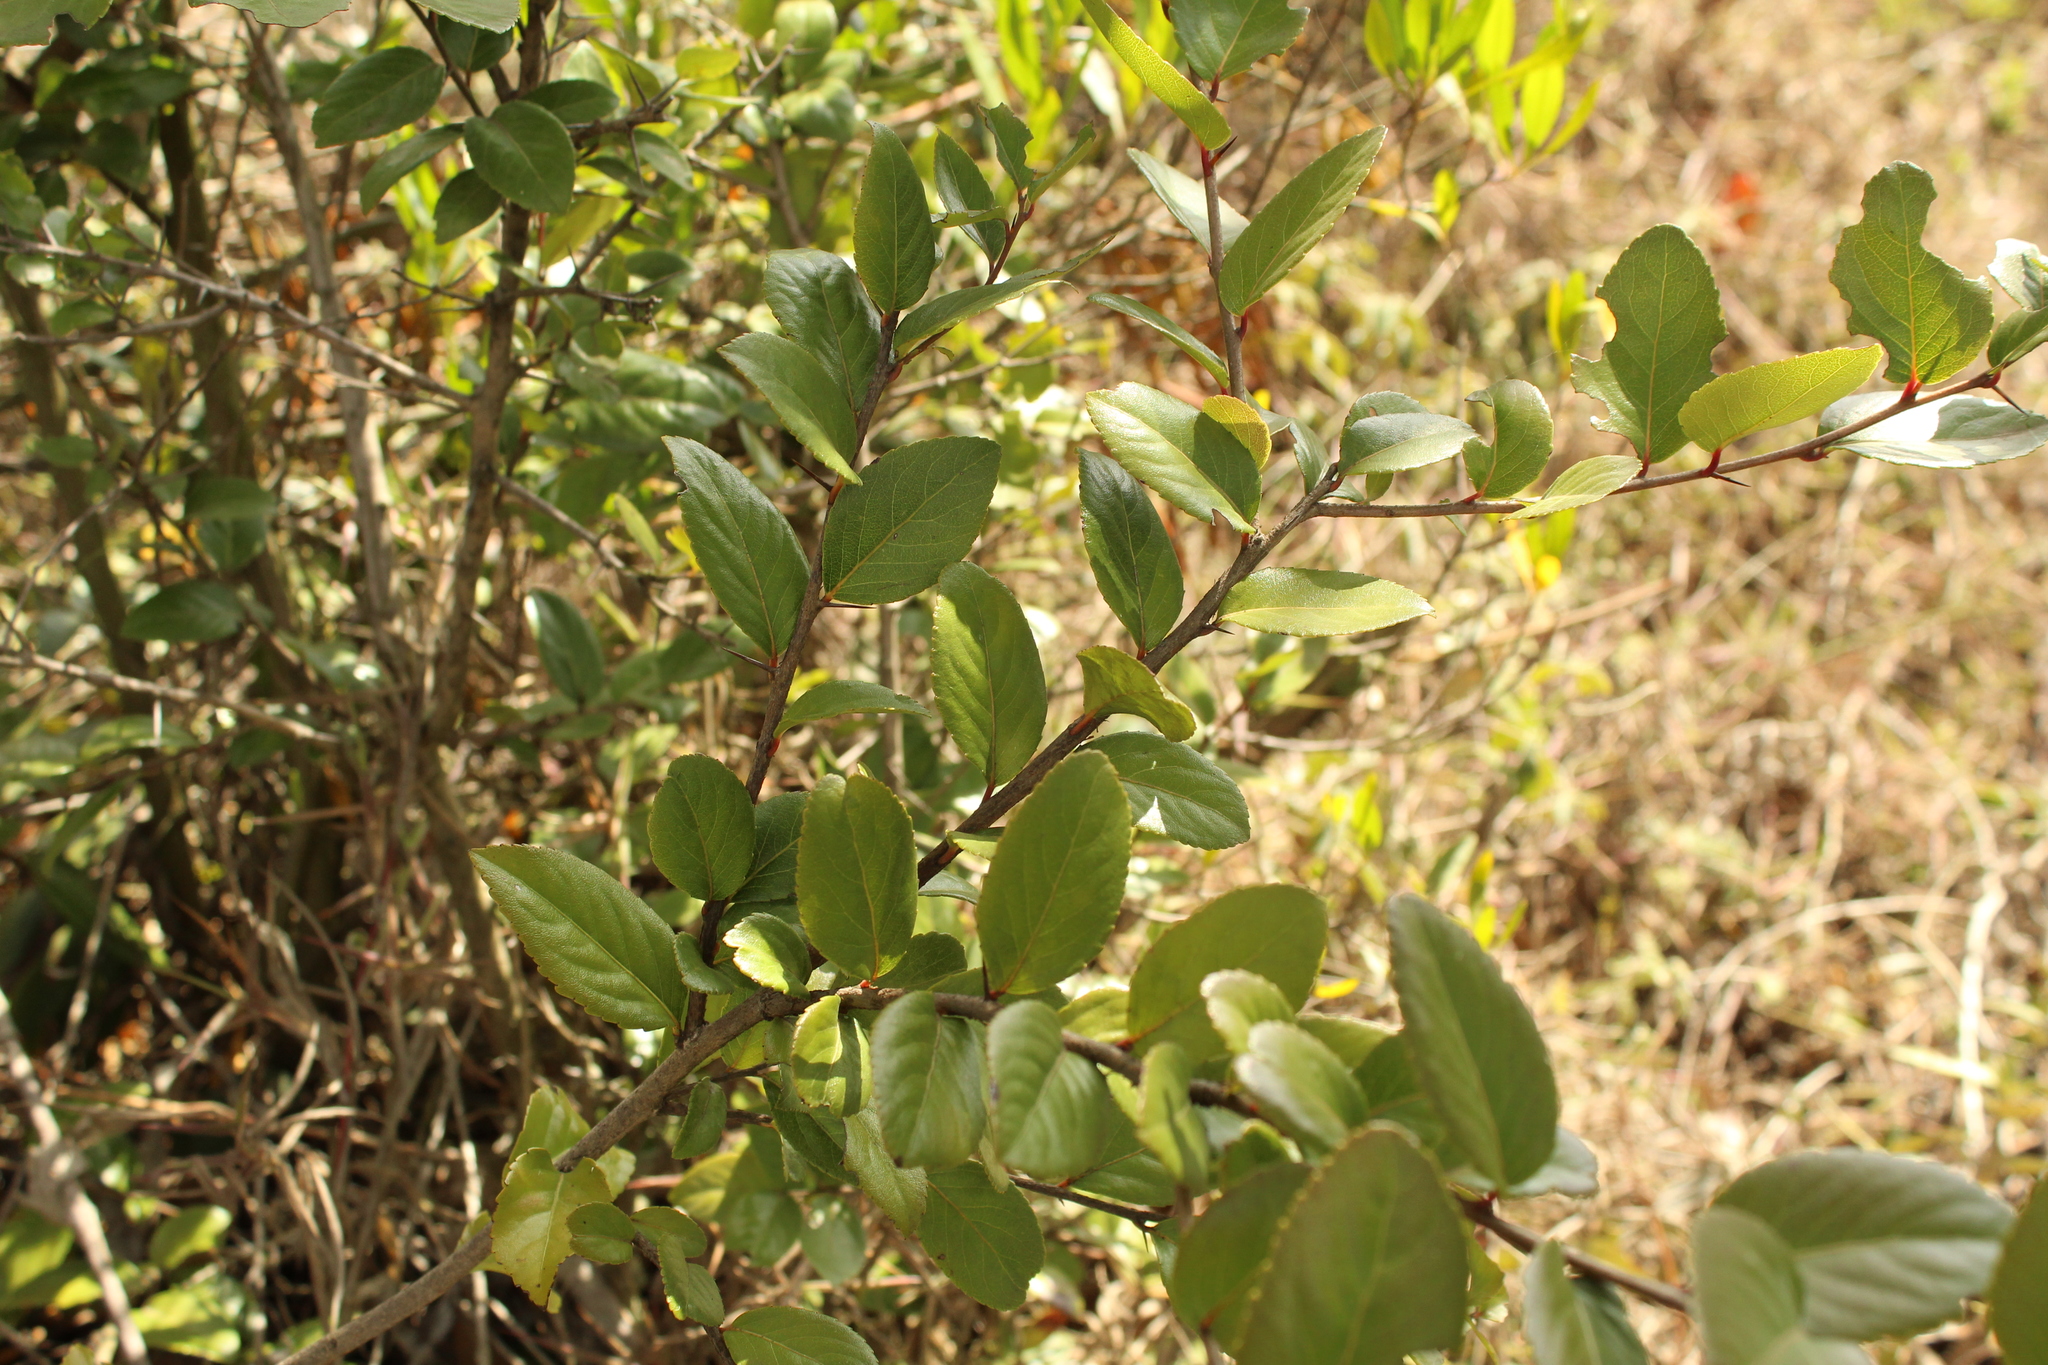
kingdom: Plantae
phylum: Tracheophyta
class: Magnoliopsida
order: Malpighiales
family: Salicaceae
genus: Xylosma
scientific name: Xylosma spiculifera
